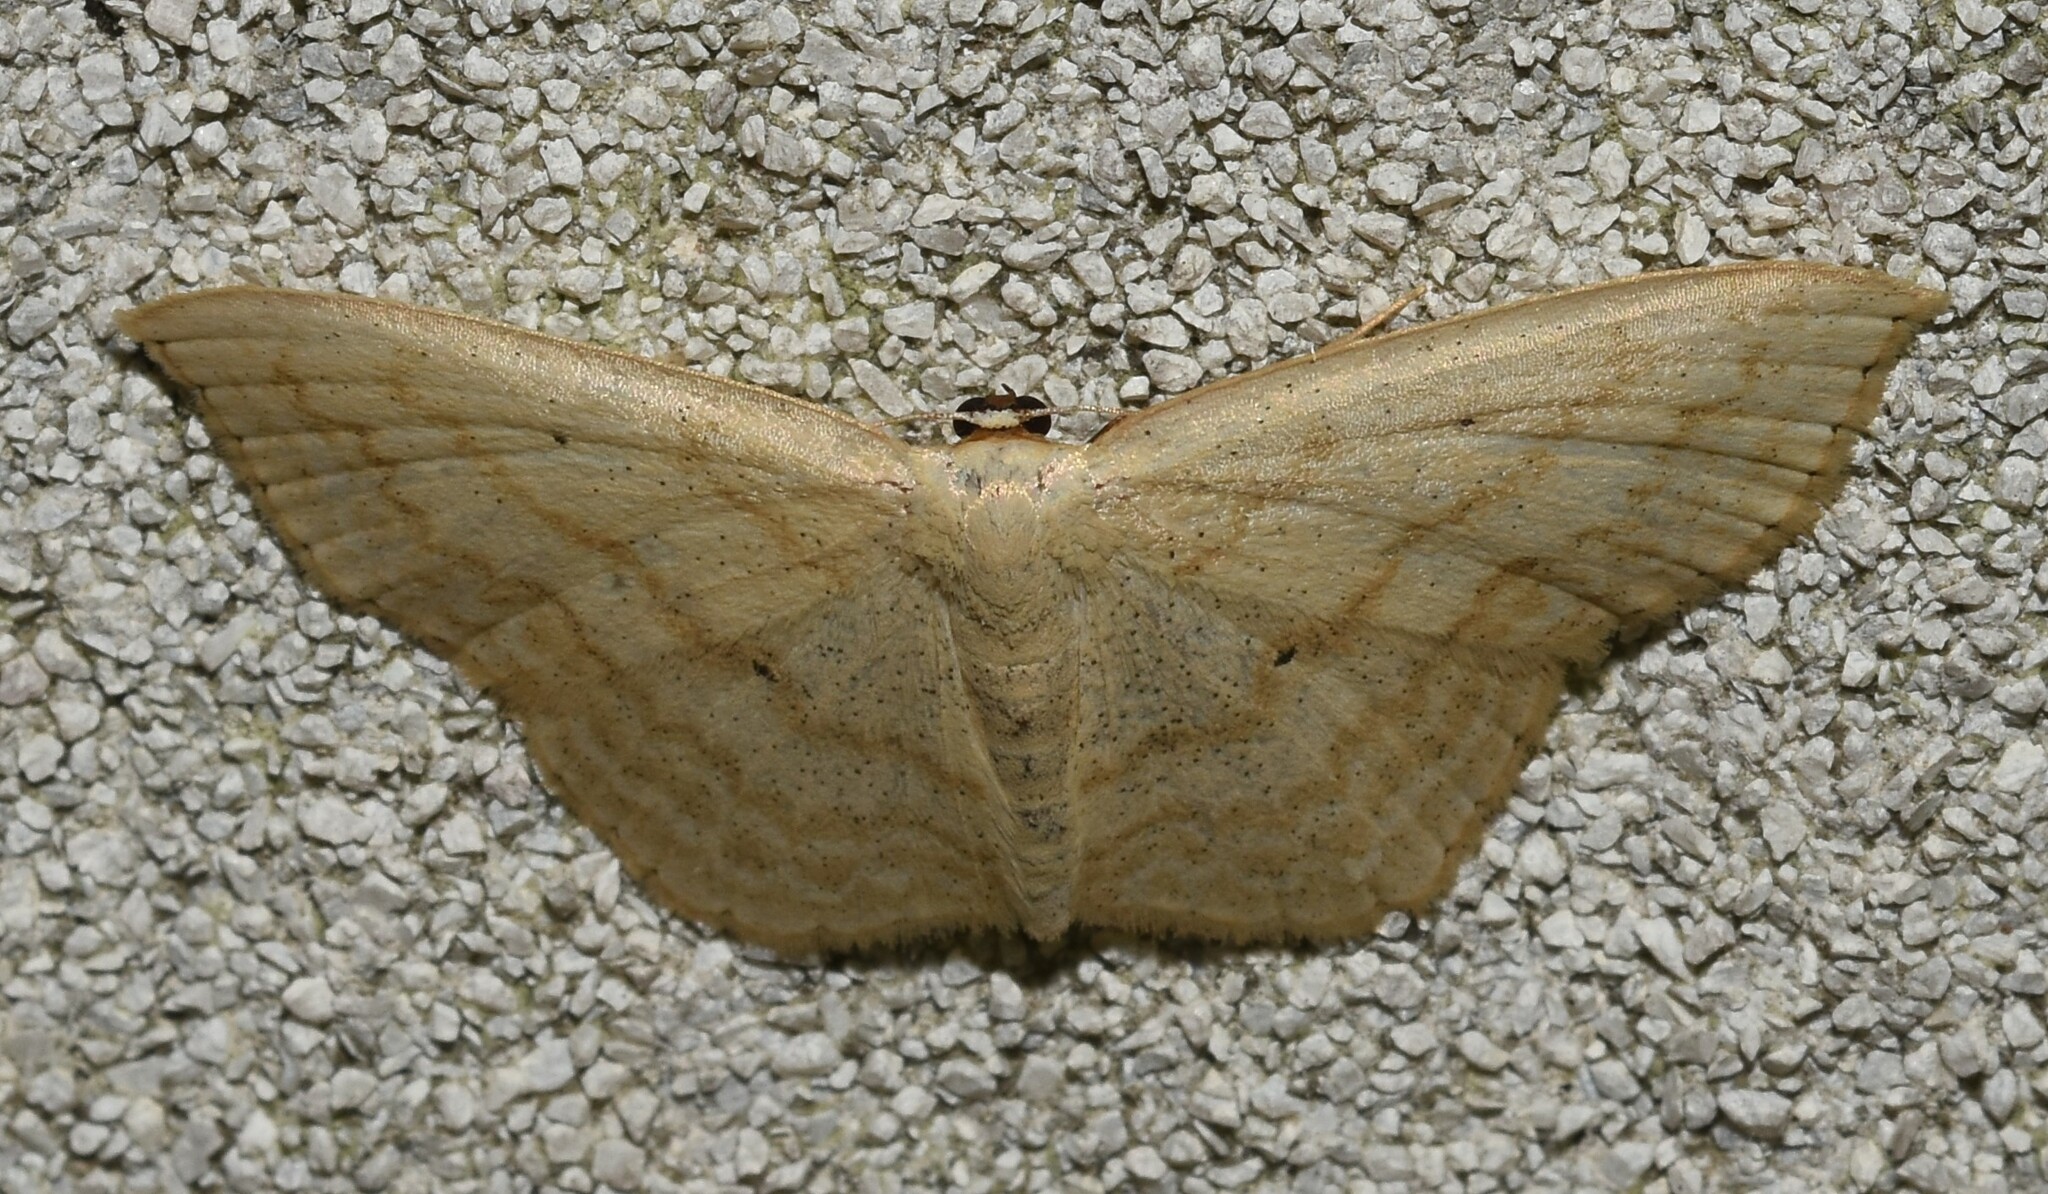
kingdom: Animalia
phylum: Arthropoda
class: Insecta
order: Lepidoptera
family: Geometridae
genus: Scopula
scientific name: Scopula limboundata
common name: Large lace border
